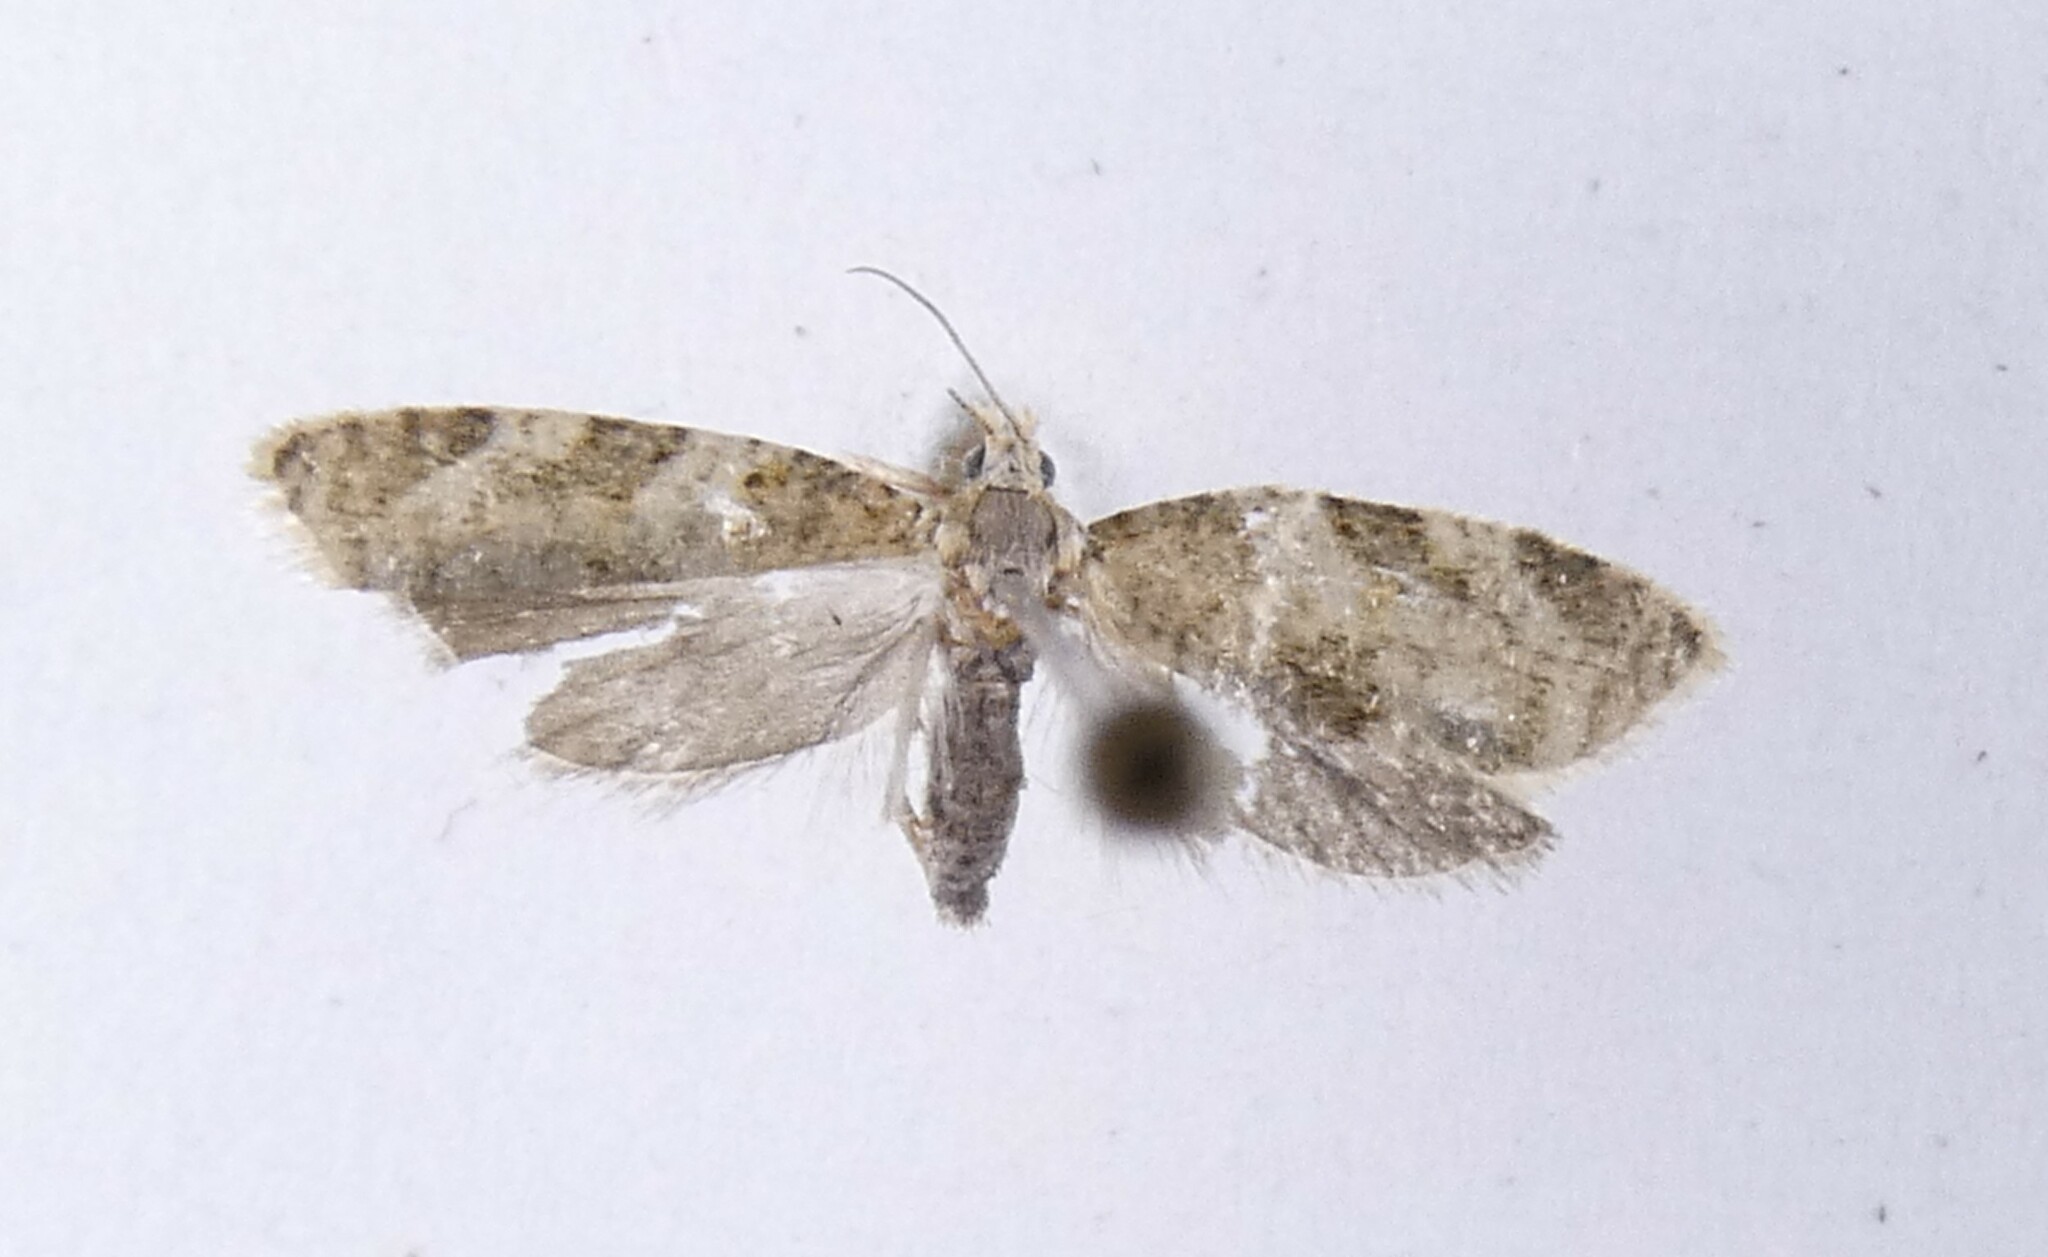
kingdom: Animalia
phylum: Arthropoda
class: Insecta
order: Lepidoptera
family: Tortricidae
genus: Dipterina
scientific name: Dipterina imbriferana
